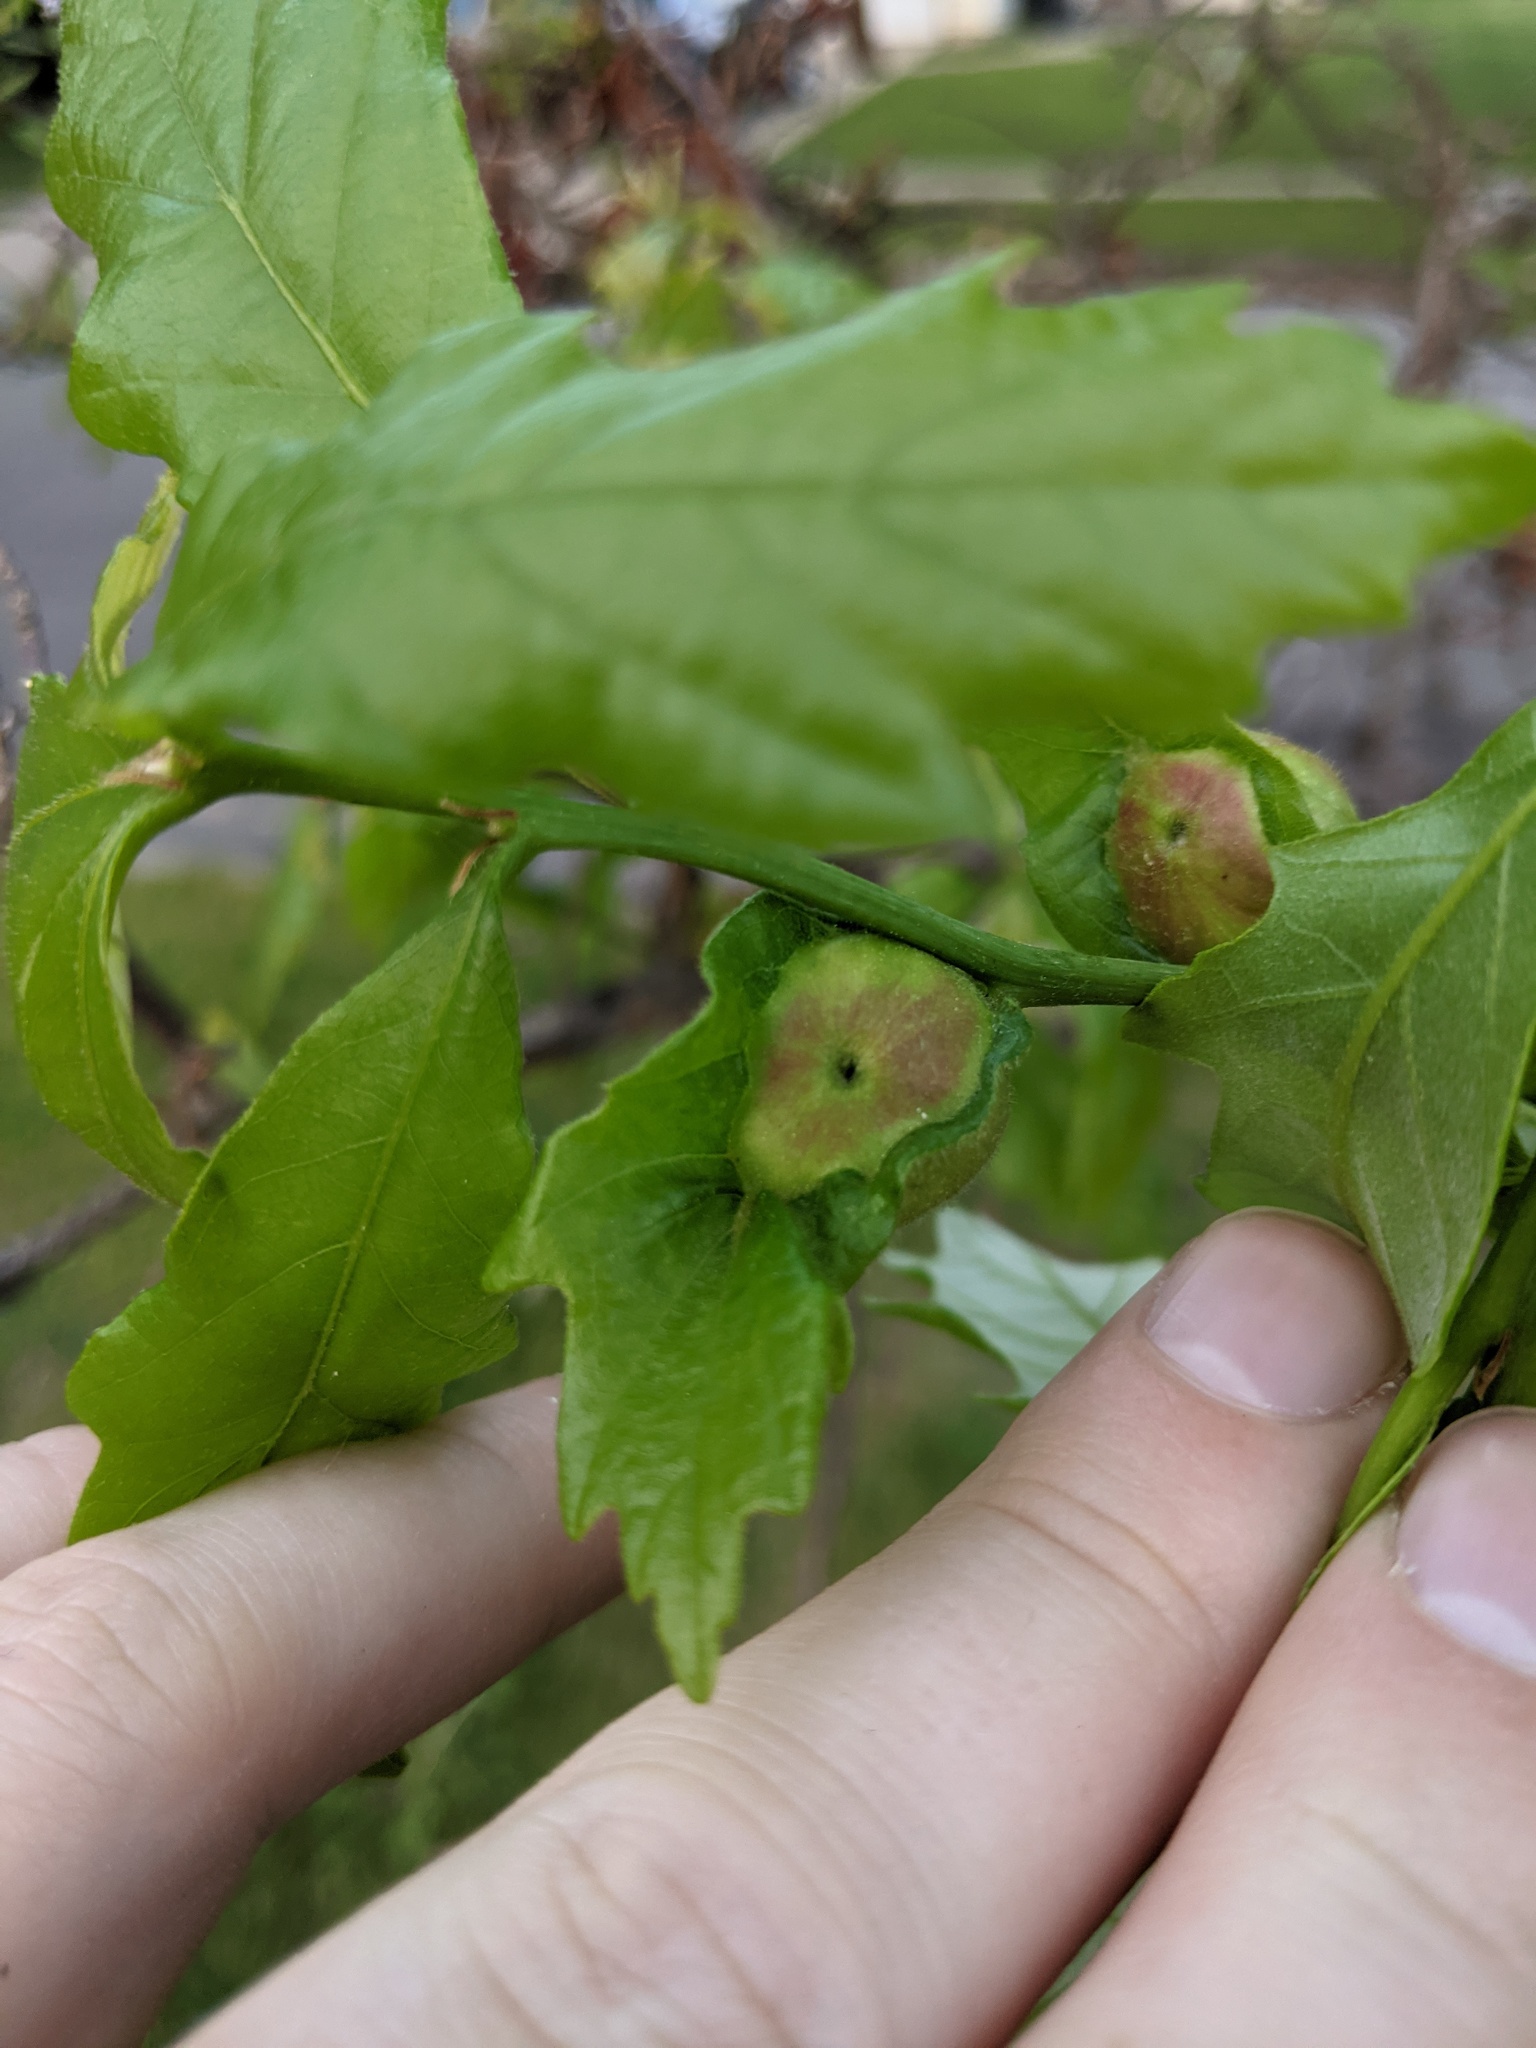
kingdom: Animalia
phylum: Arthropoda
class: Insecta
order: Hymenoptera
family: Cynipidae
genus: Andricus
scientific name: Andricus
